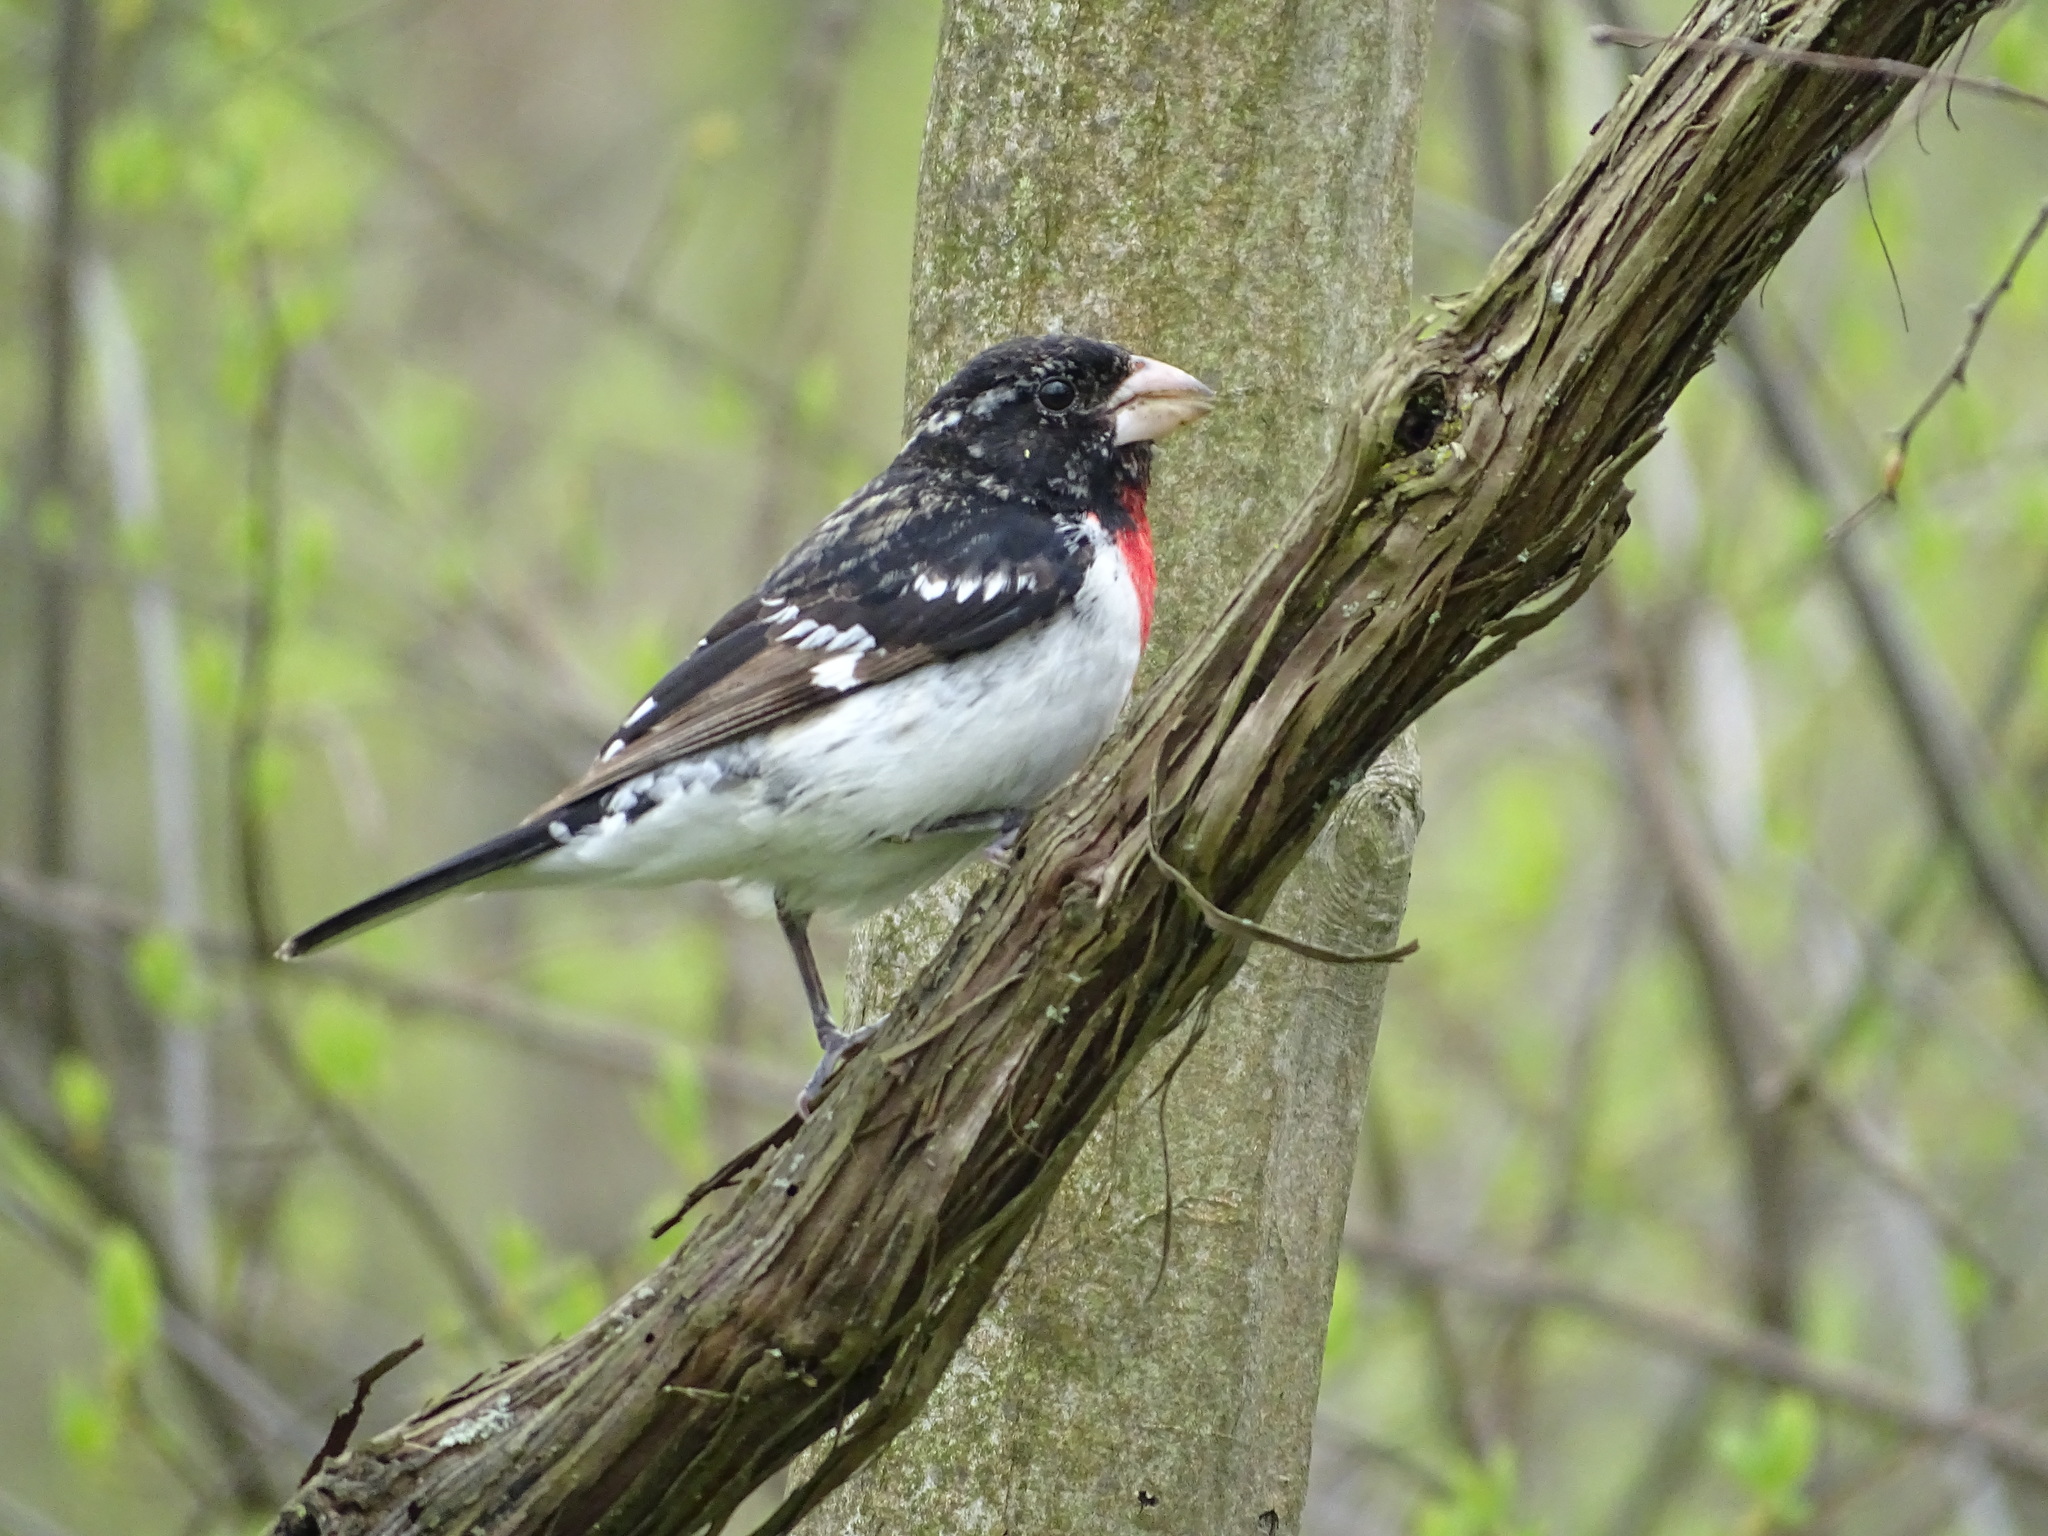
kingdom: Animalia
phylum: Chordata
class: Aves
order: Passeriformes
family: Cardinalidae
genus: Pheucticus
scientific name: Pheucticus ludovicianus
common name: Rose-breasted grosbeak
